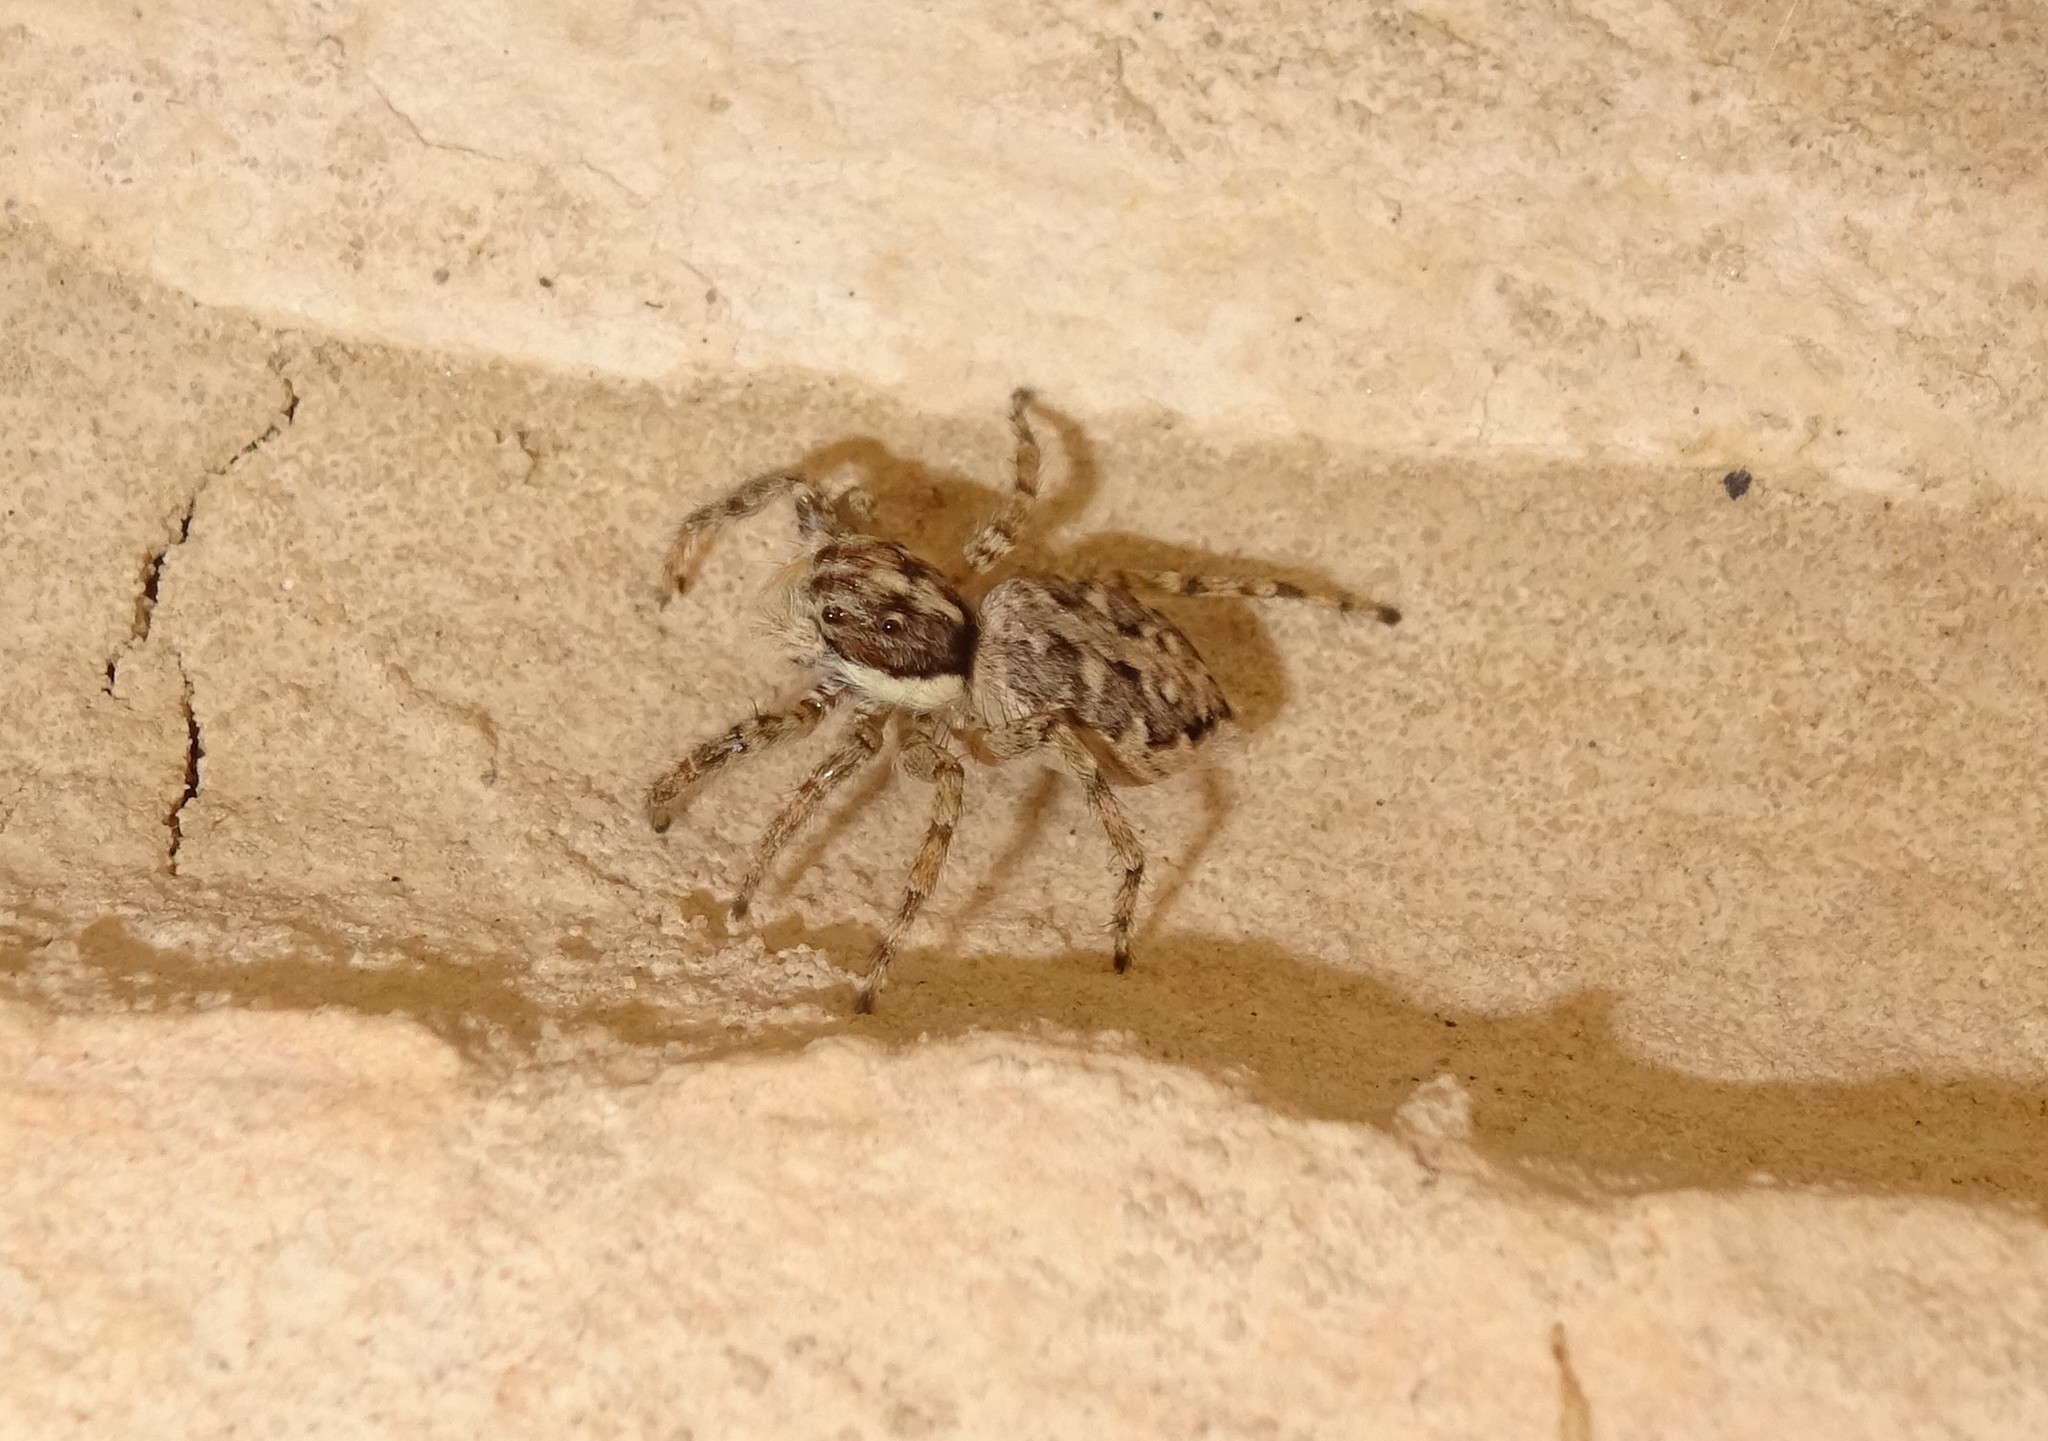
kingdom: Animalia
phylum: Arthropoda
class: Arachnida
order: Araneae
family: Salticidae
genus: Menemerus
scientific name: Menemerus semilimbatus
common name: Jumping spider
